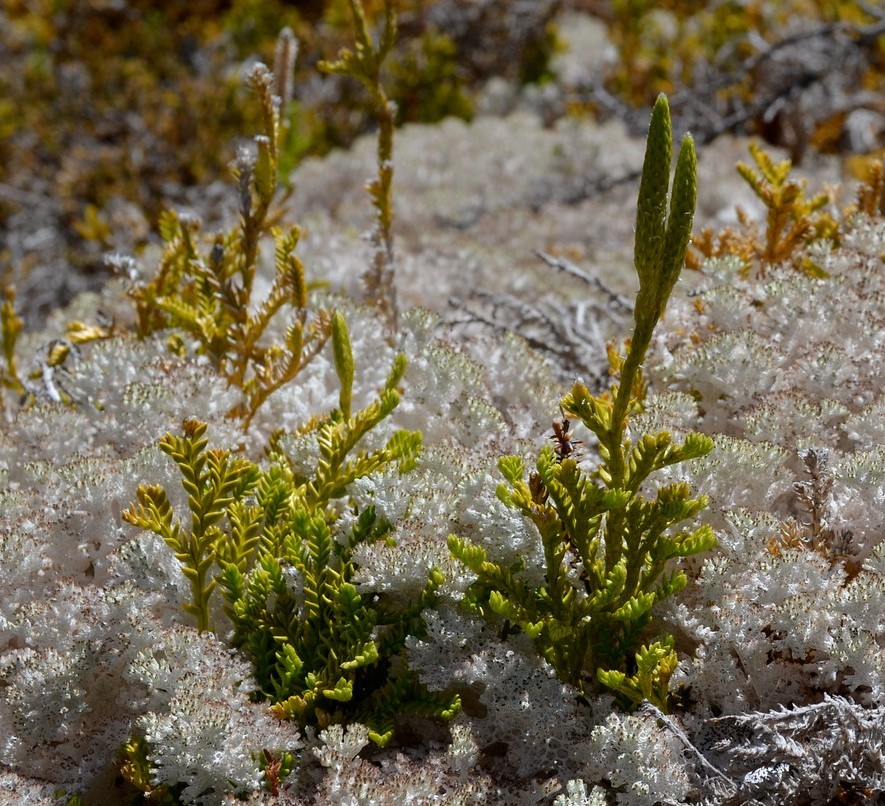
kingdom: Plantae
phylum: Tracheophyta
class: Lycopodiopsida
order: Lycopodiales
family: Lycopodiaceae
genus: Diphasium
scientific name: Diphasium scariosum
